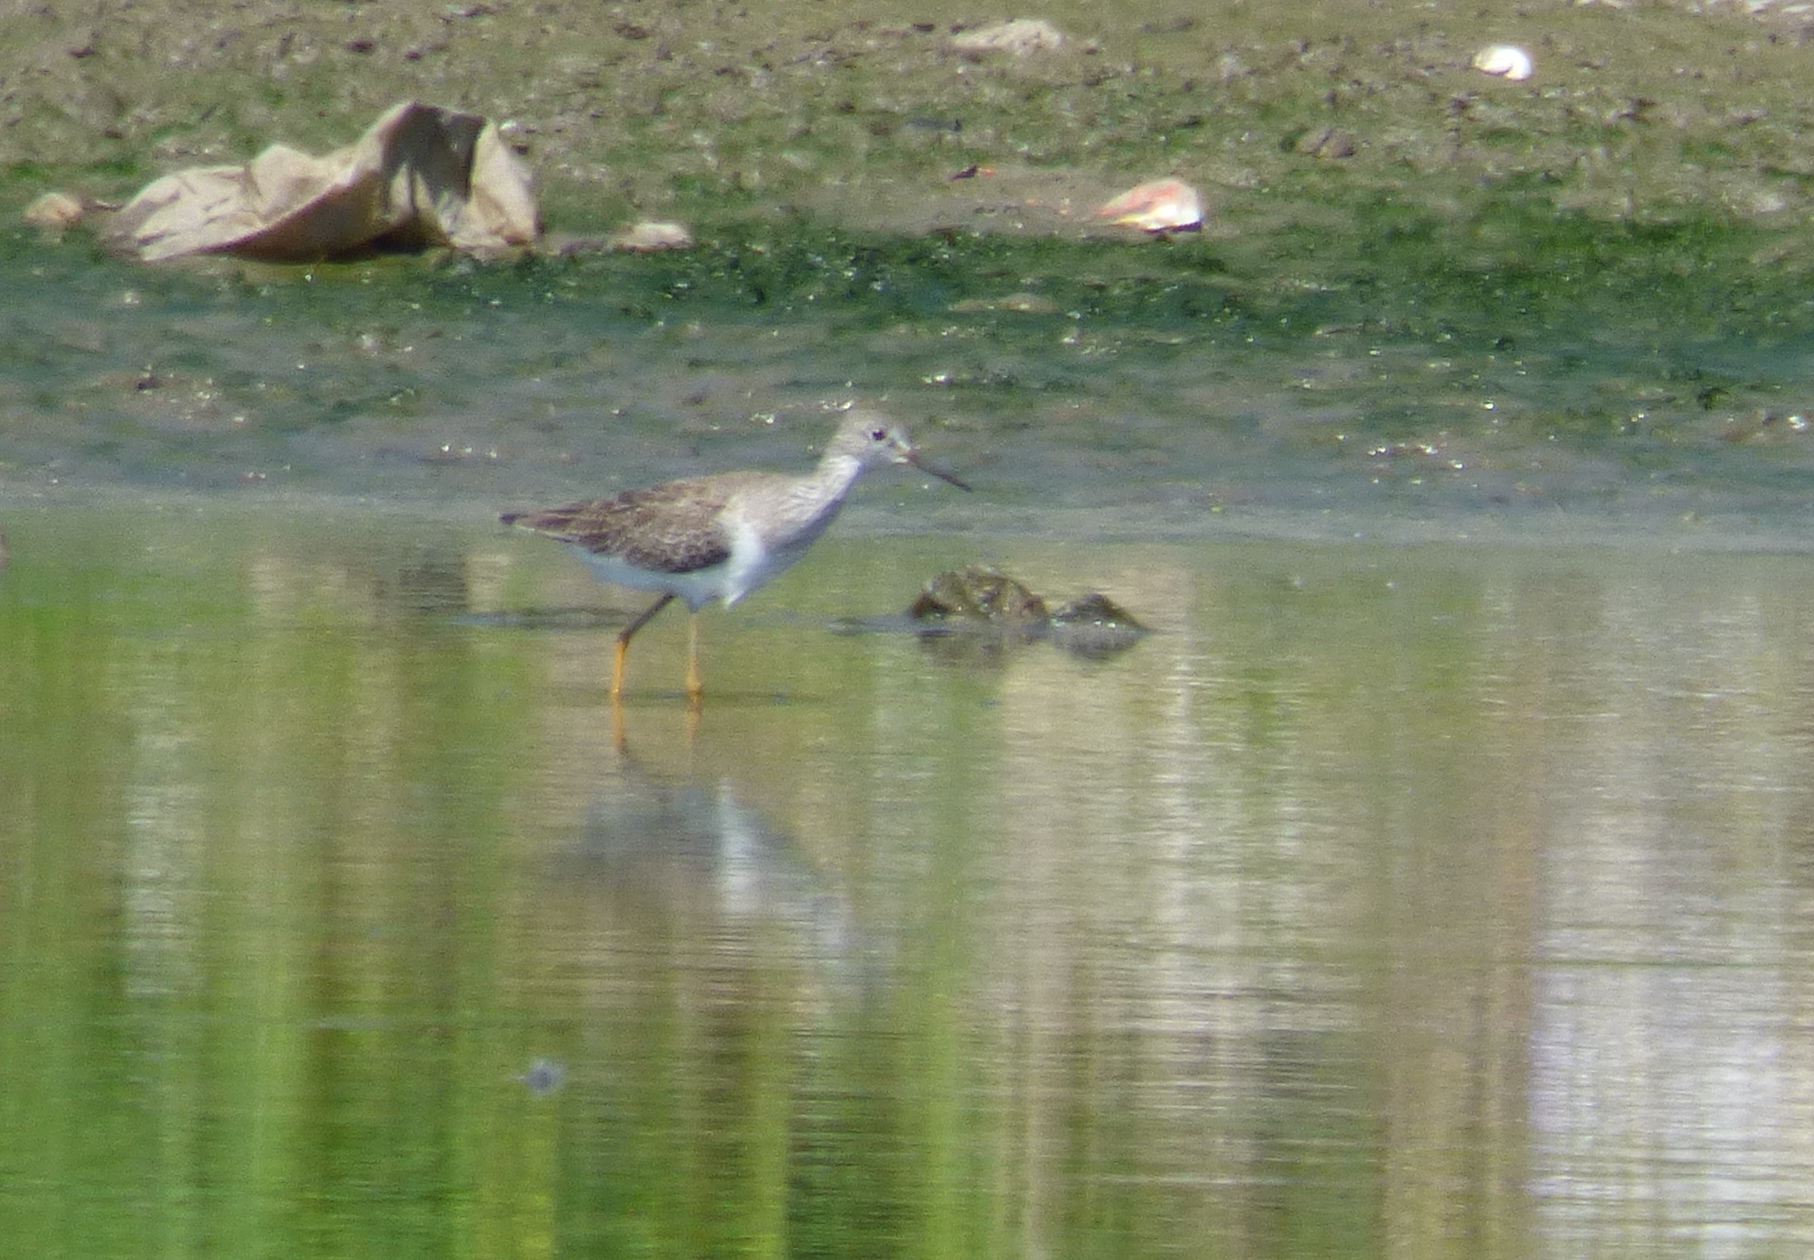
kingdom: Animalia
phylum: Chordata
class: Aves
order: Charadriiformes
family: Scolopacidae
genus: Tringa
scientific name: Tringa flavipes
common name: Lesser yellowlegs
